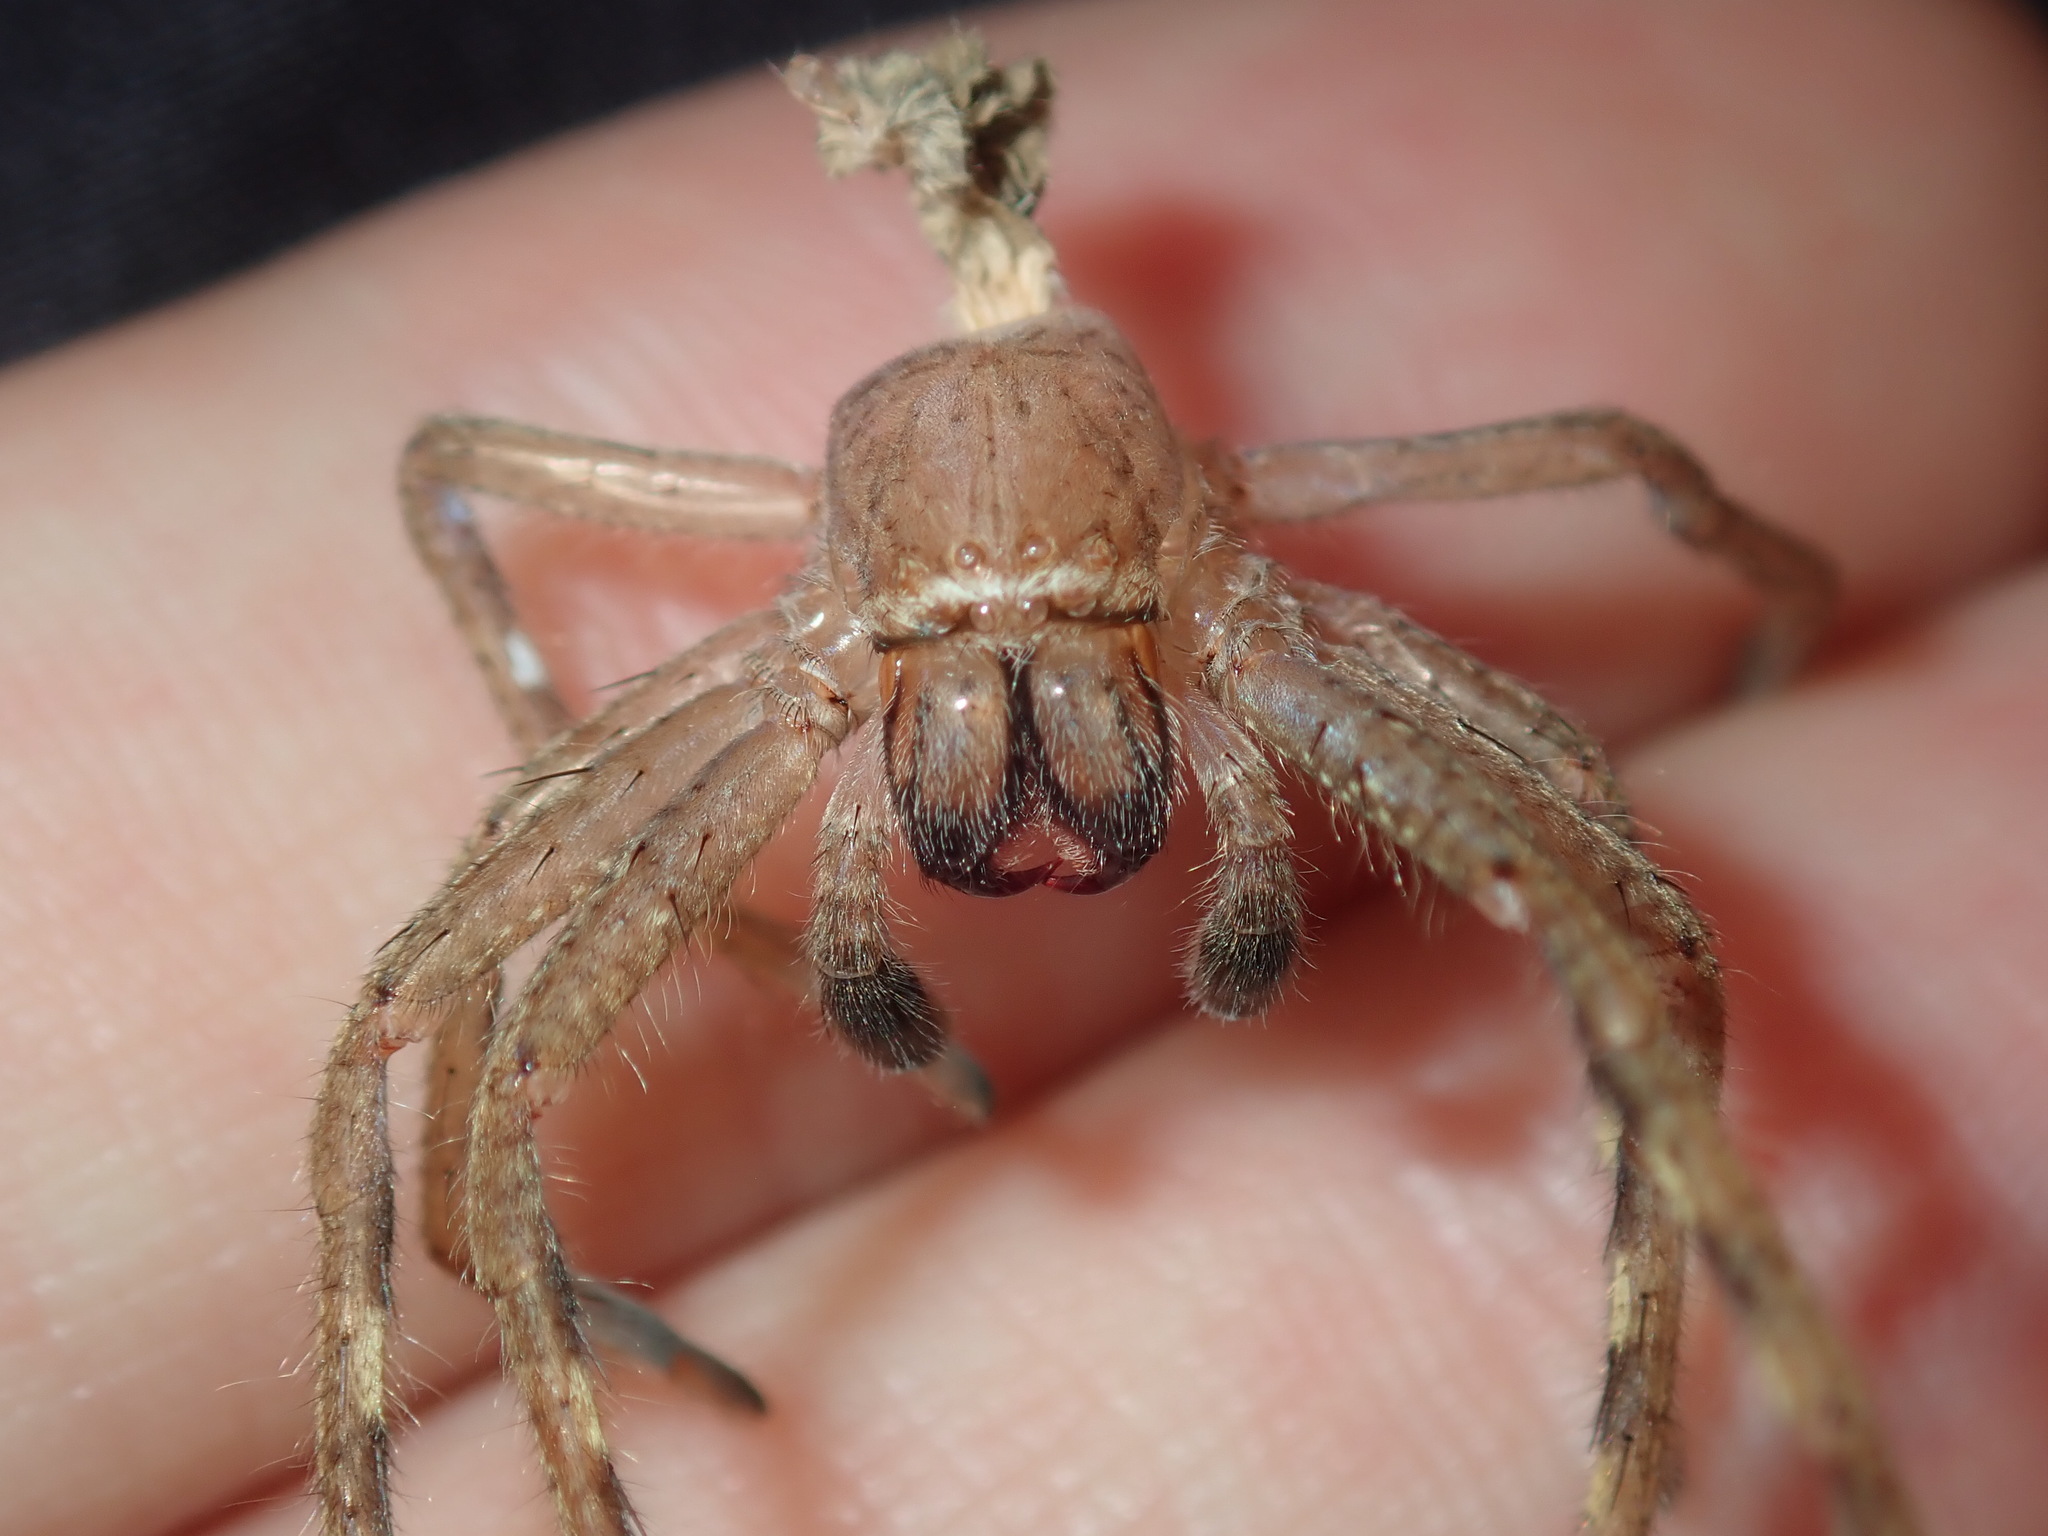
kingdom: Animalia
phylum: Arthropoda
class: Arachnida
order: Araneae
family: Sparassidae
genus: Neosparassus
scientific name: Neosparassus calligaster
